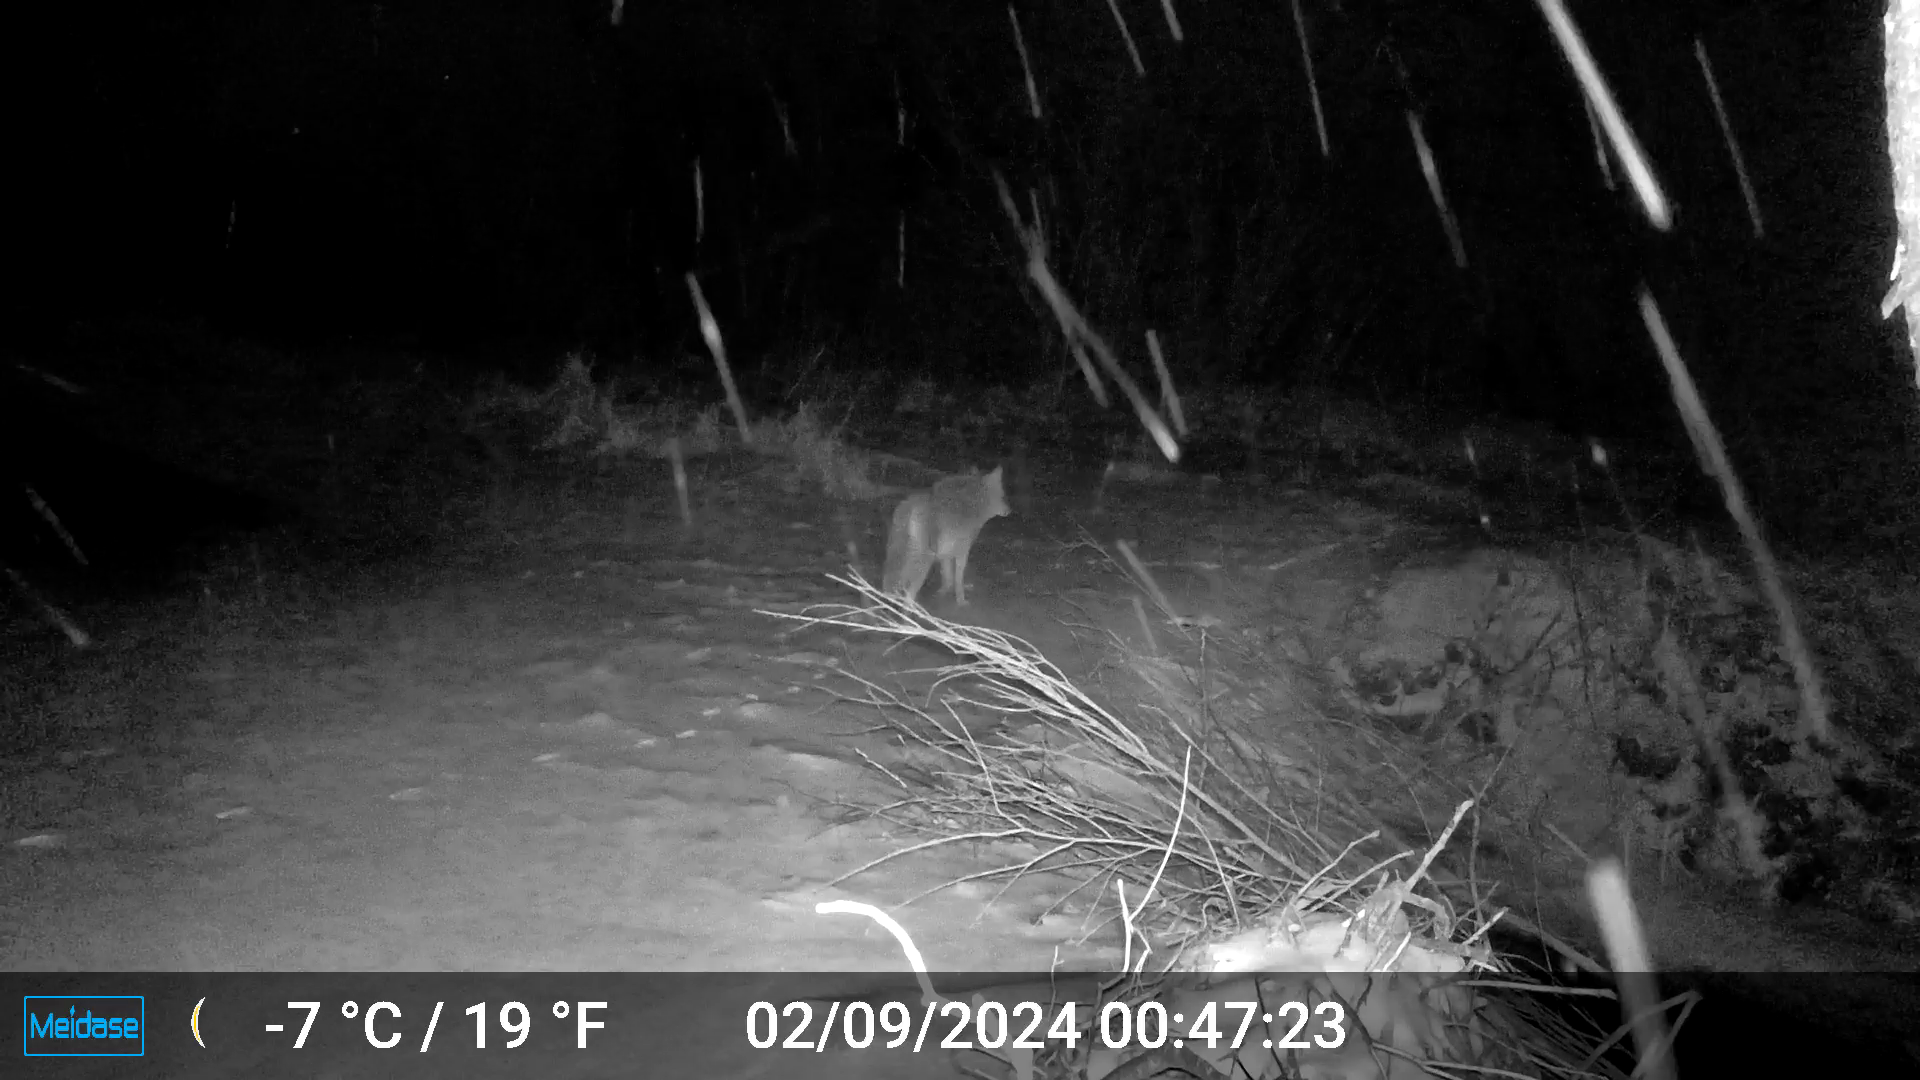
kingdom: Animalia
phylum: Chordata
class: Mammalia
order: Carnivora
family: Canidae
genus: Canis
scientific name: Canis latrans
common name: Coyote
